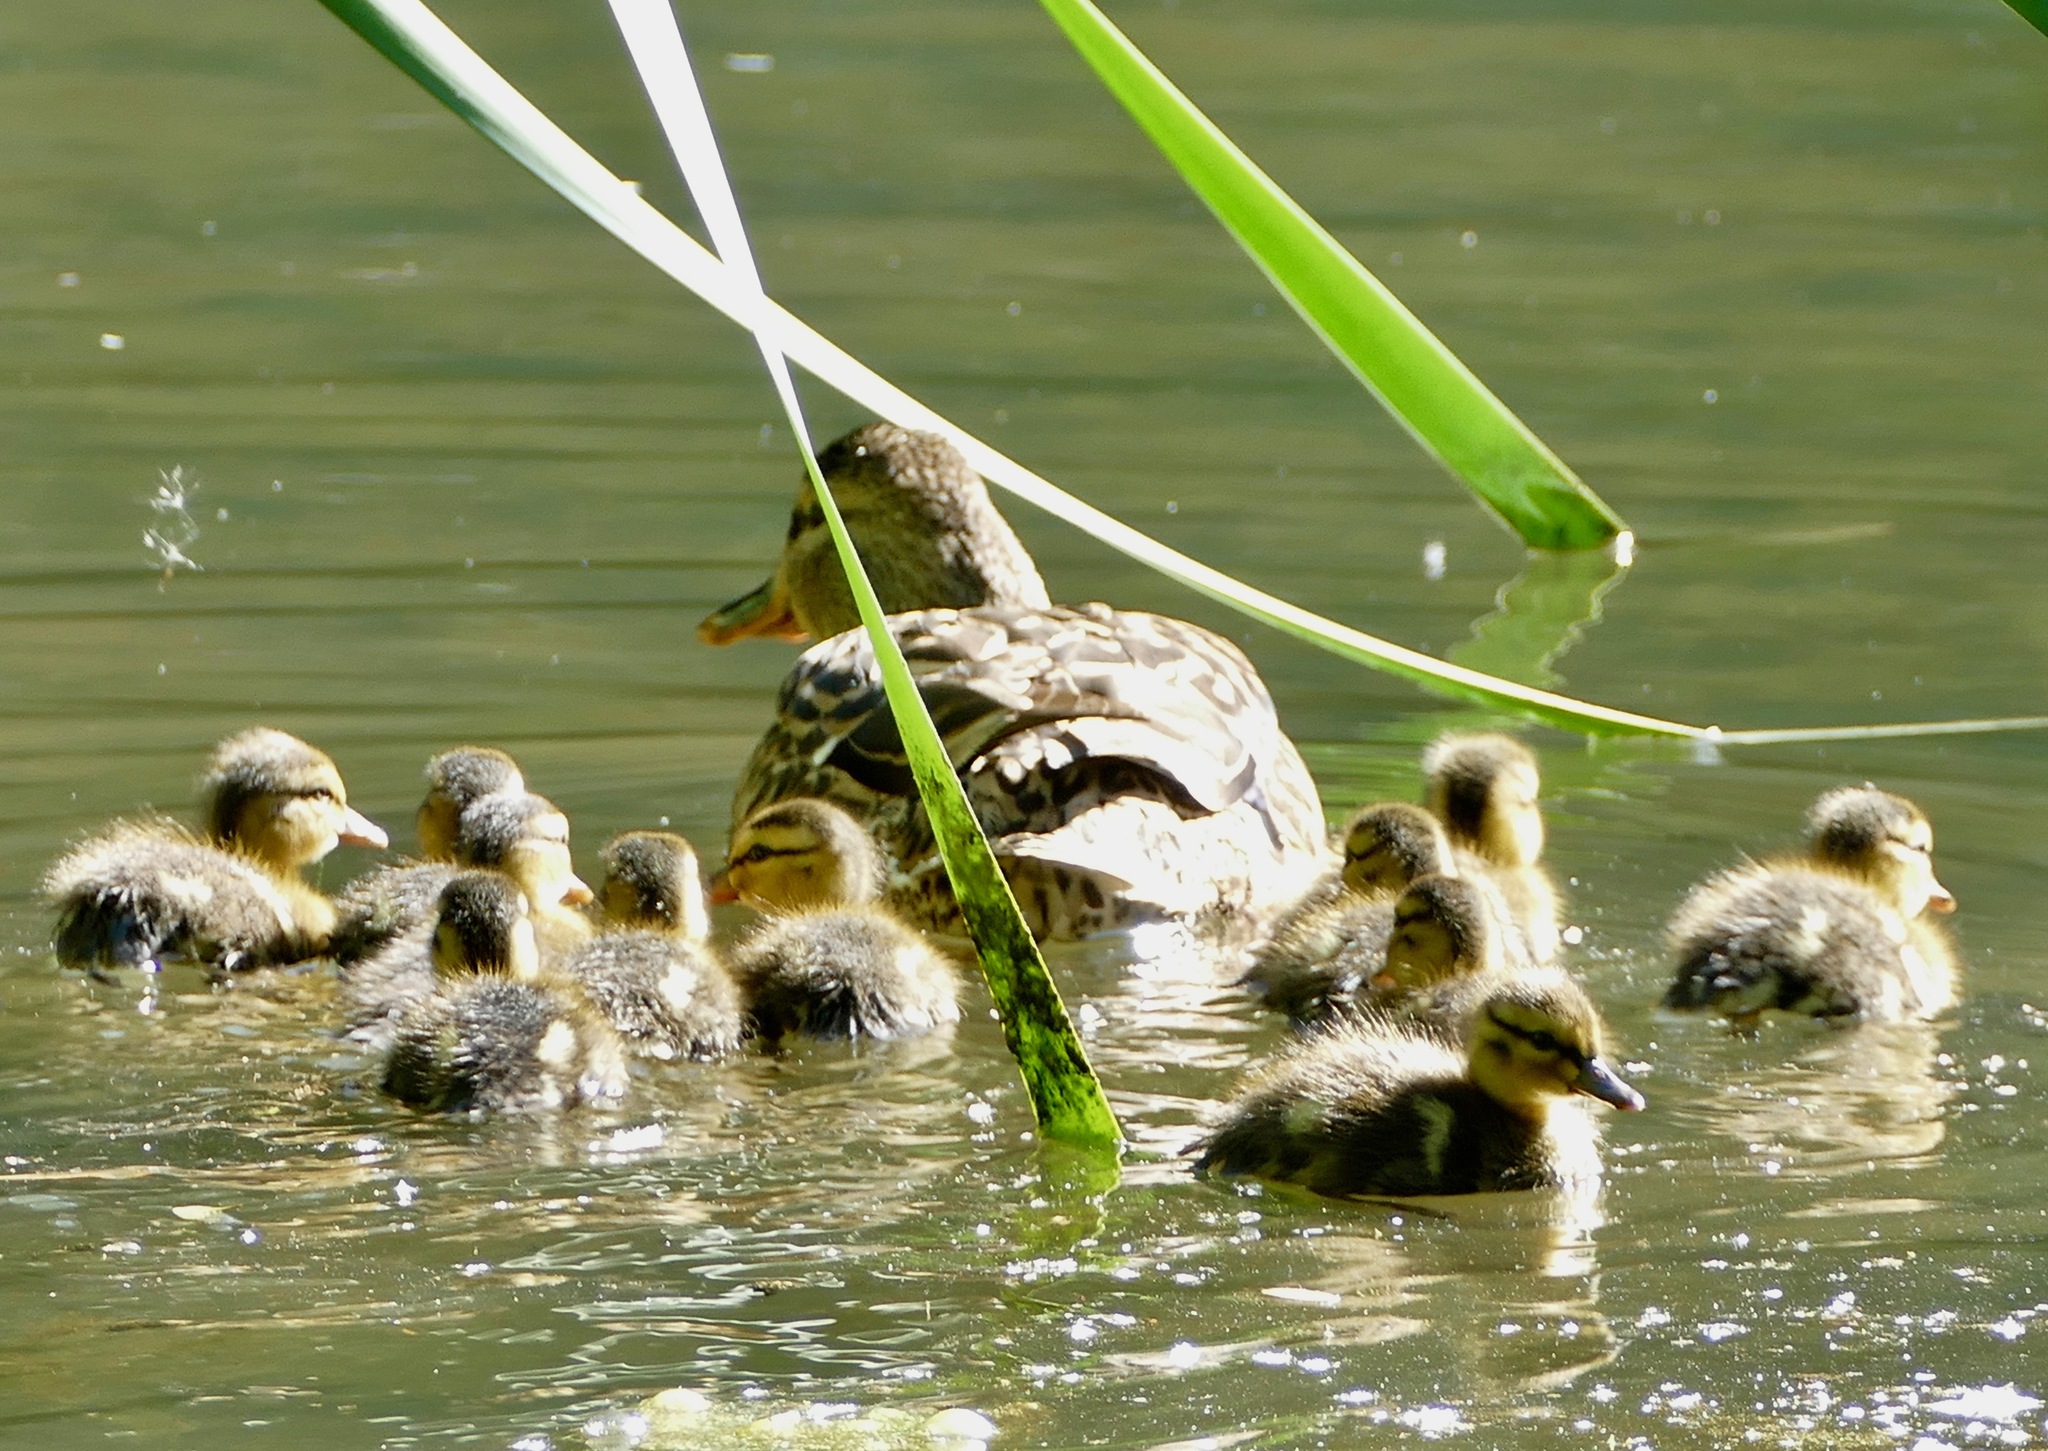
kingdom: Animalia
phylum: Chordata
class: Aves
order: Anseriformes
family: Anatidae
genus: Anas
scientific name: Anas platyrhynchos
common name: Mallard
